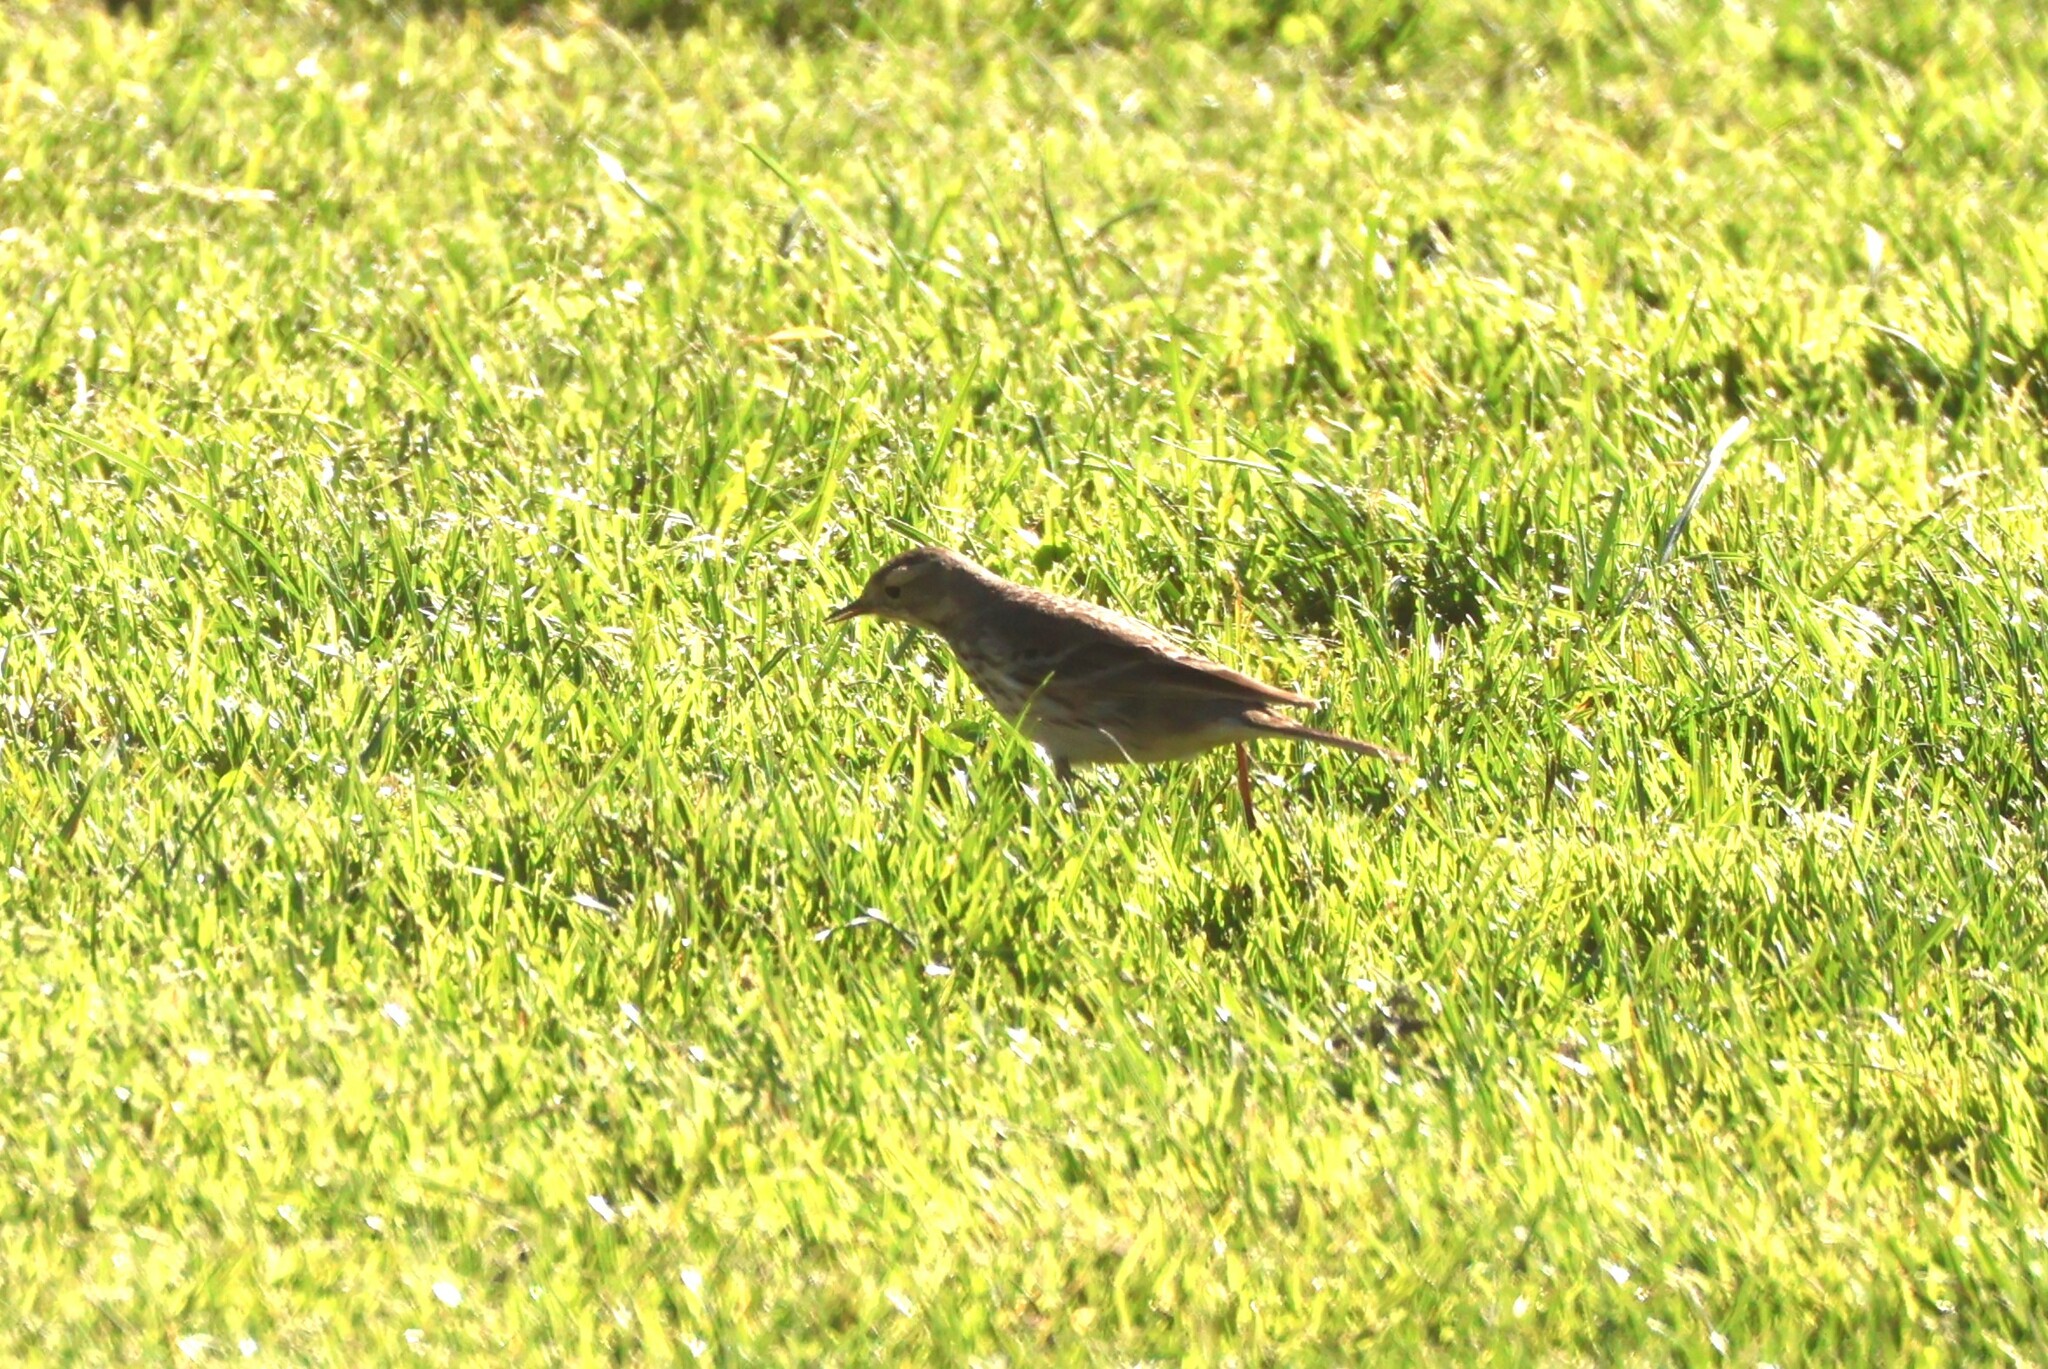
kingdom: Animalia
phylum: Chordata
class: Aves
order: Passeriformes
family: Motacillidae
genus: Anthus
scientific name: Anthus rubescens
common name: Buff-bellied pipit
